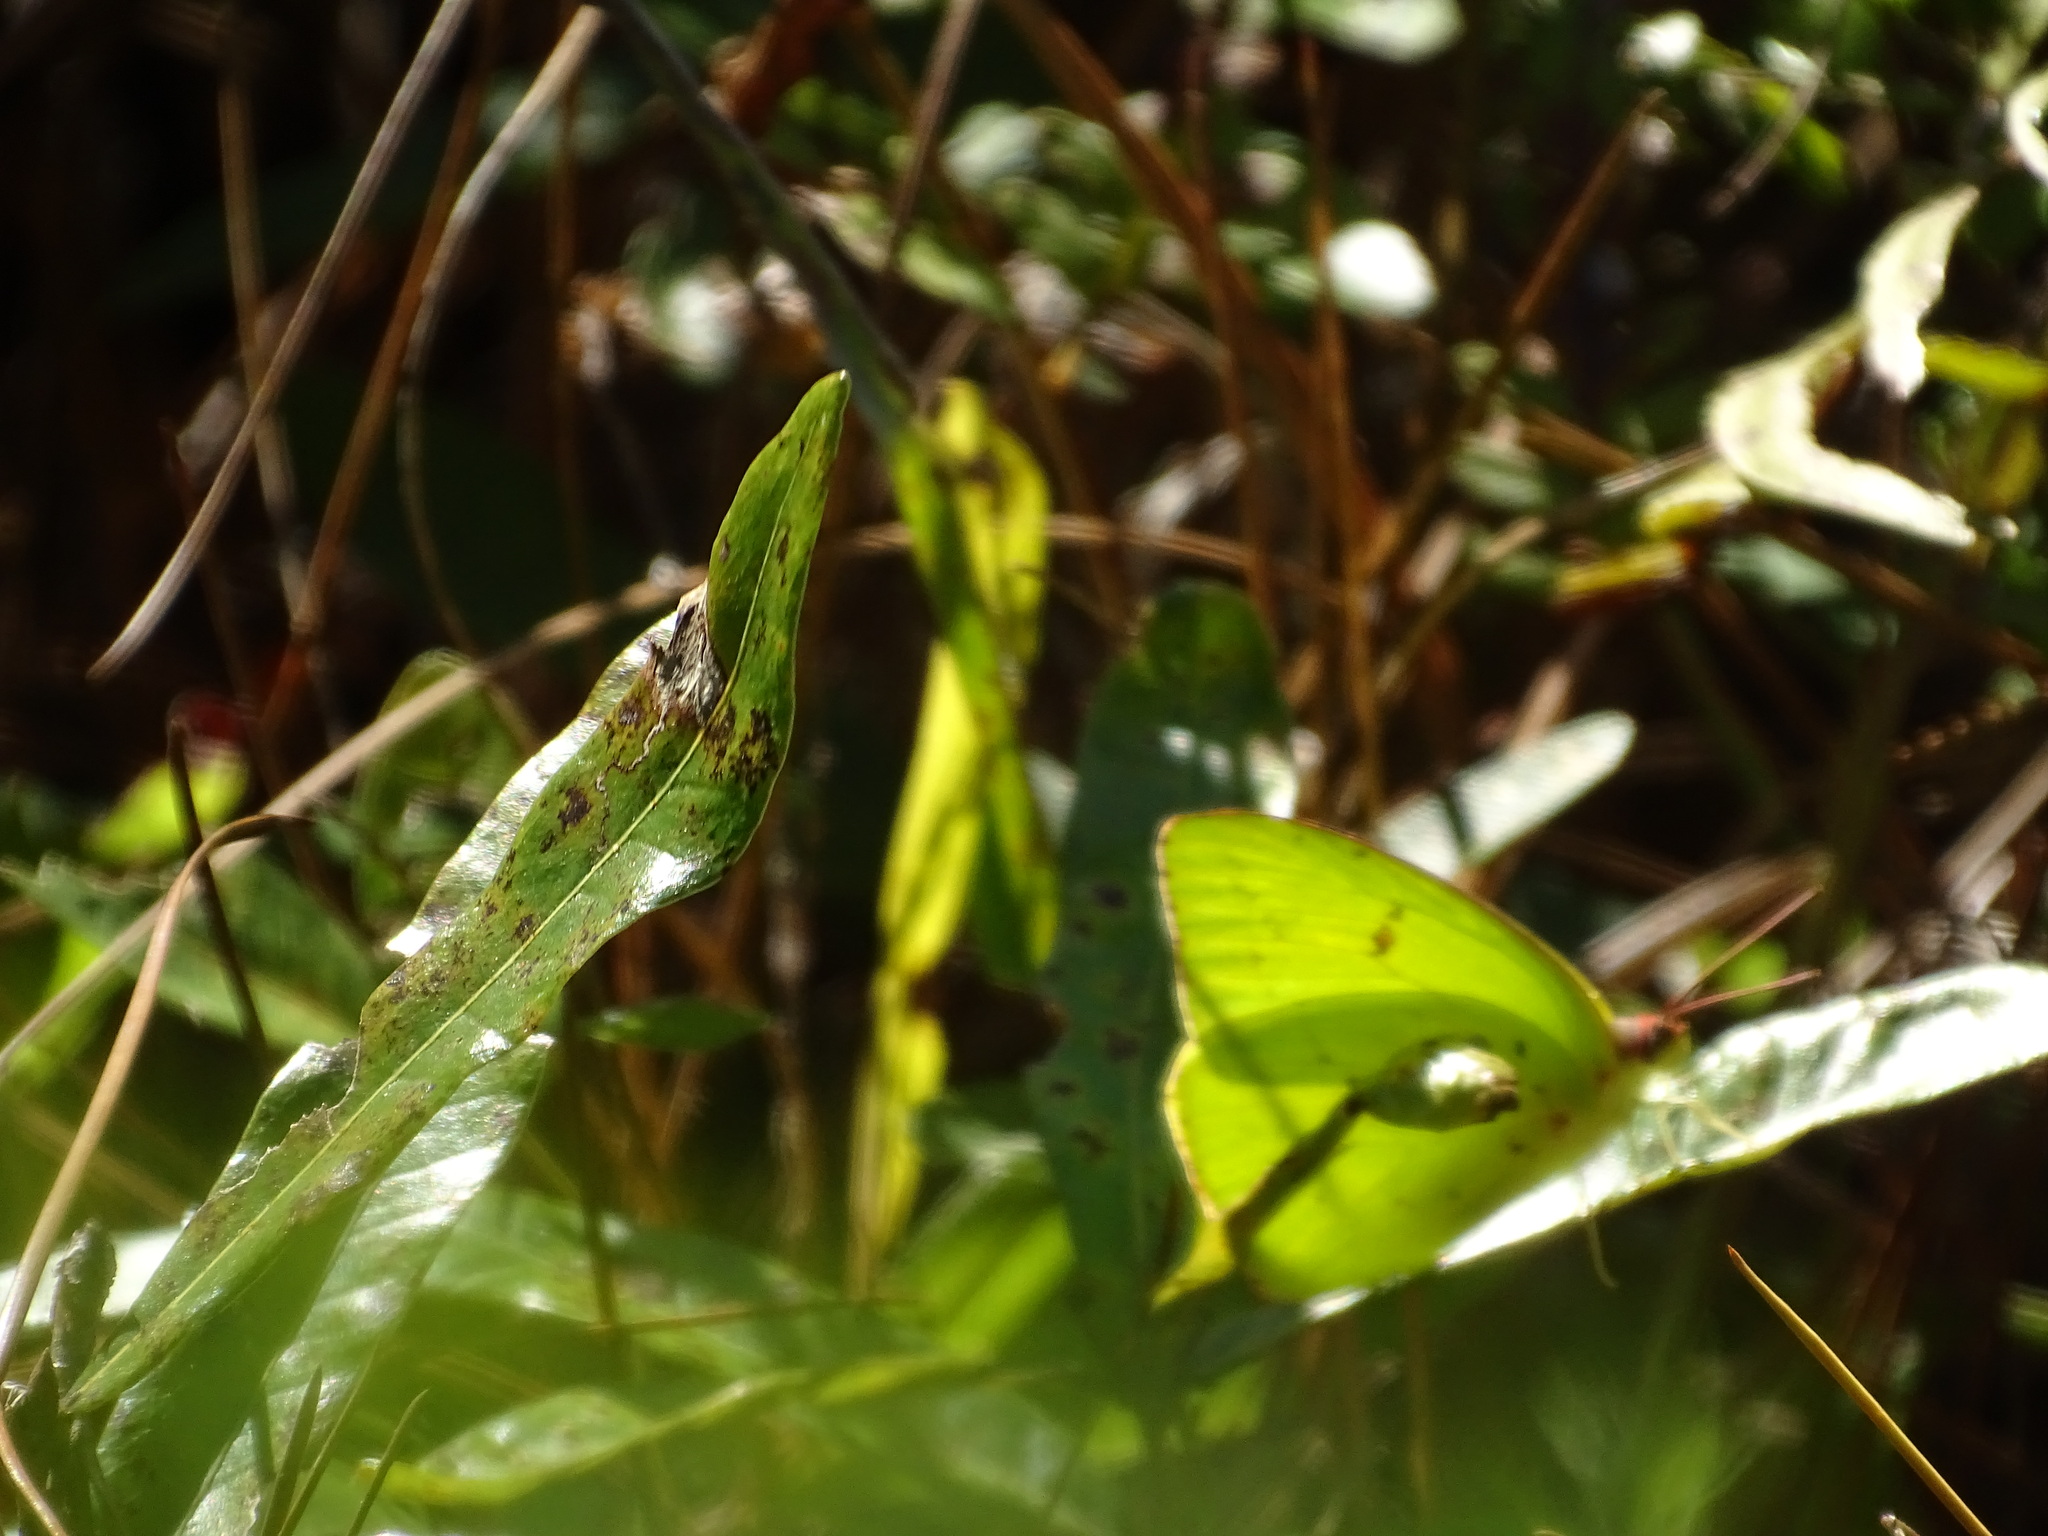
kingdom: Animalia
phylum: Arthropoda
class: Insecta
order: Lepidoptera
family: Pieridae
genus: Phoebis
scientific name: Phoebis sennae
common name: Cloudless sulphur
